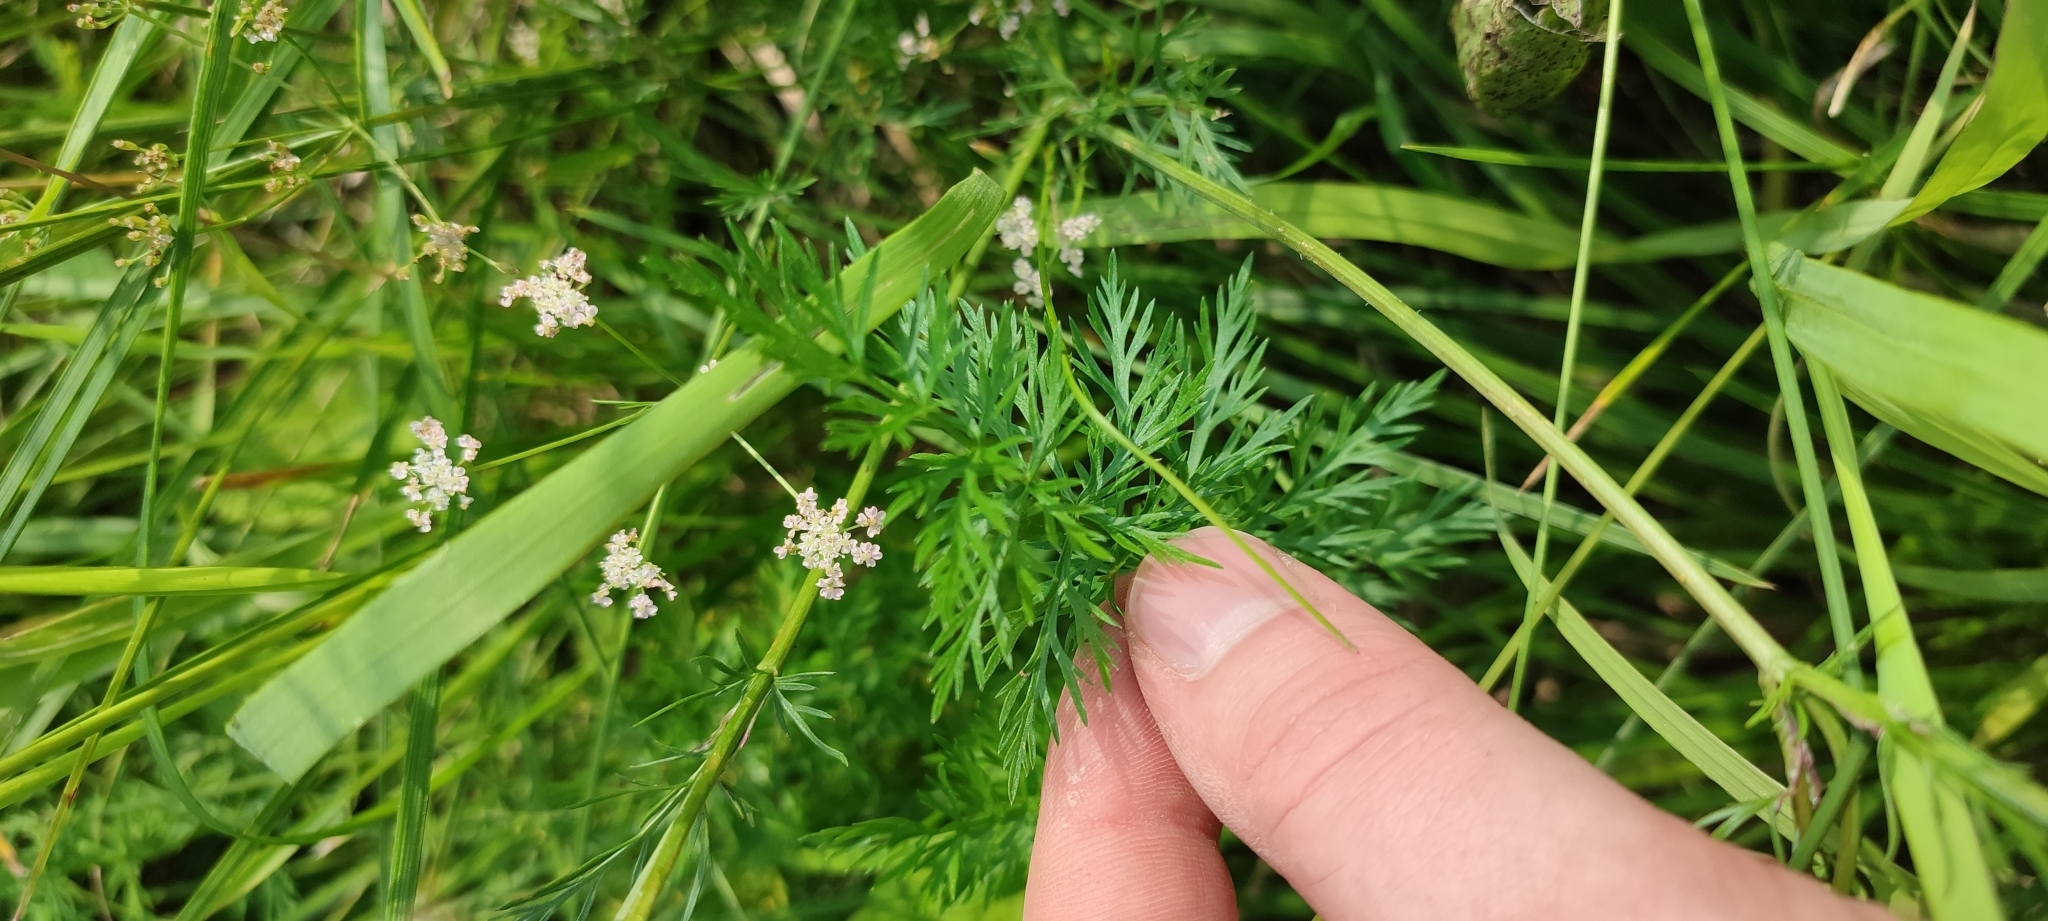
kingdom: Plantae
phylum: Tracheophyta
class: Magnoliopsida
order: Apiales
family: Apiaceae
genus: Carum
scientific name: Carum carvi
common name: Caraway
